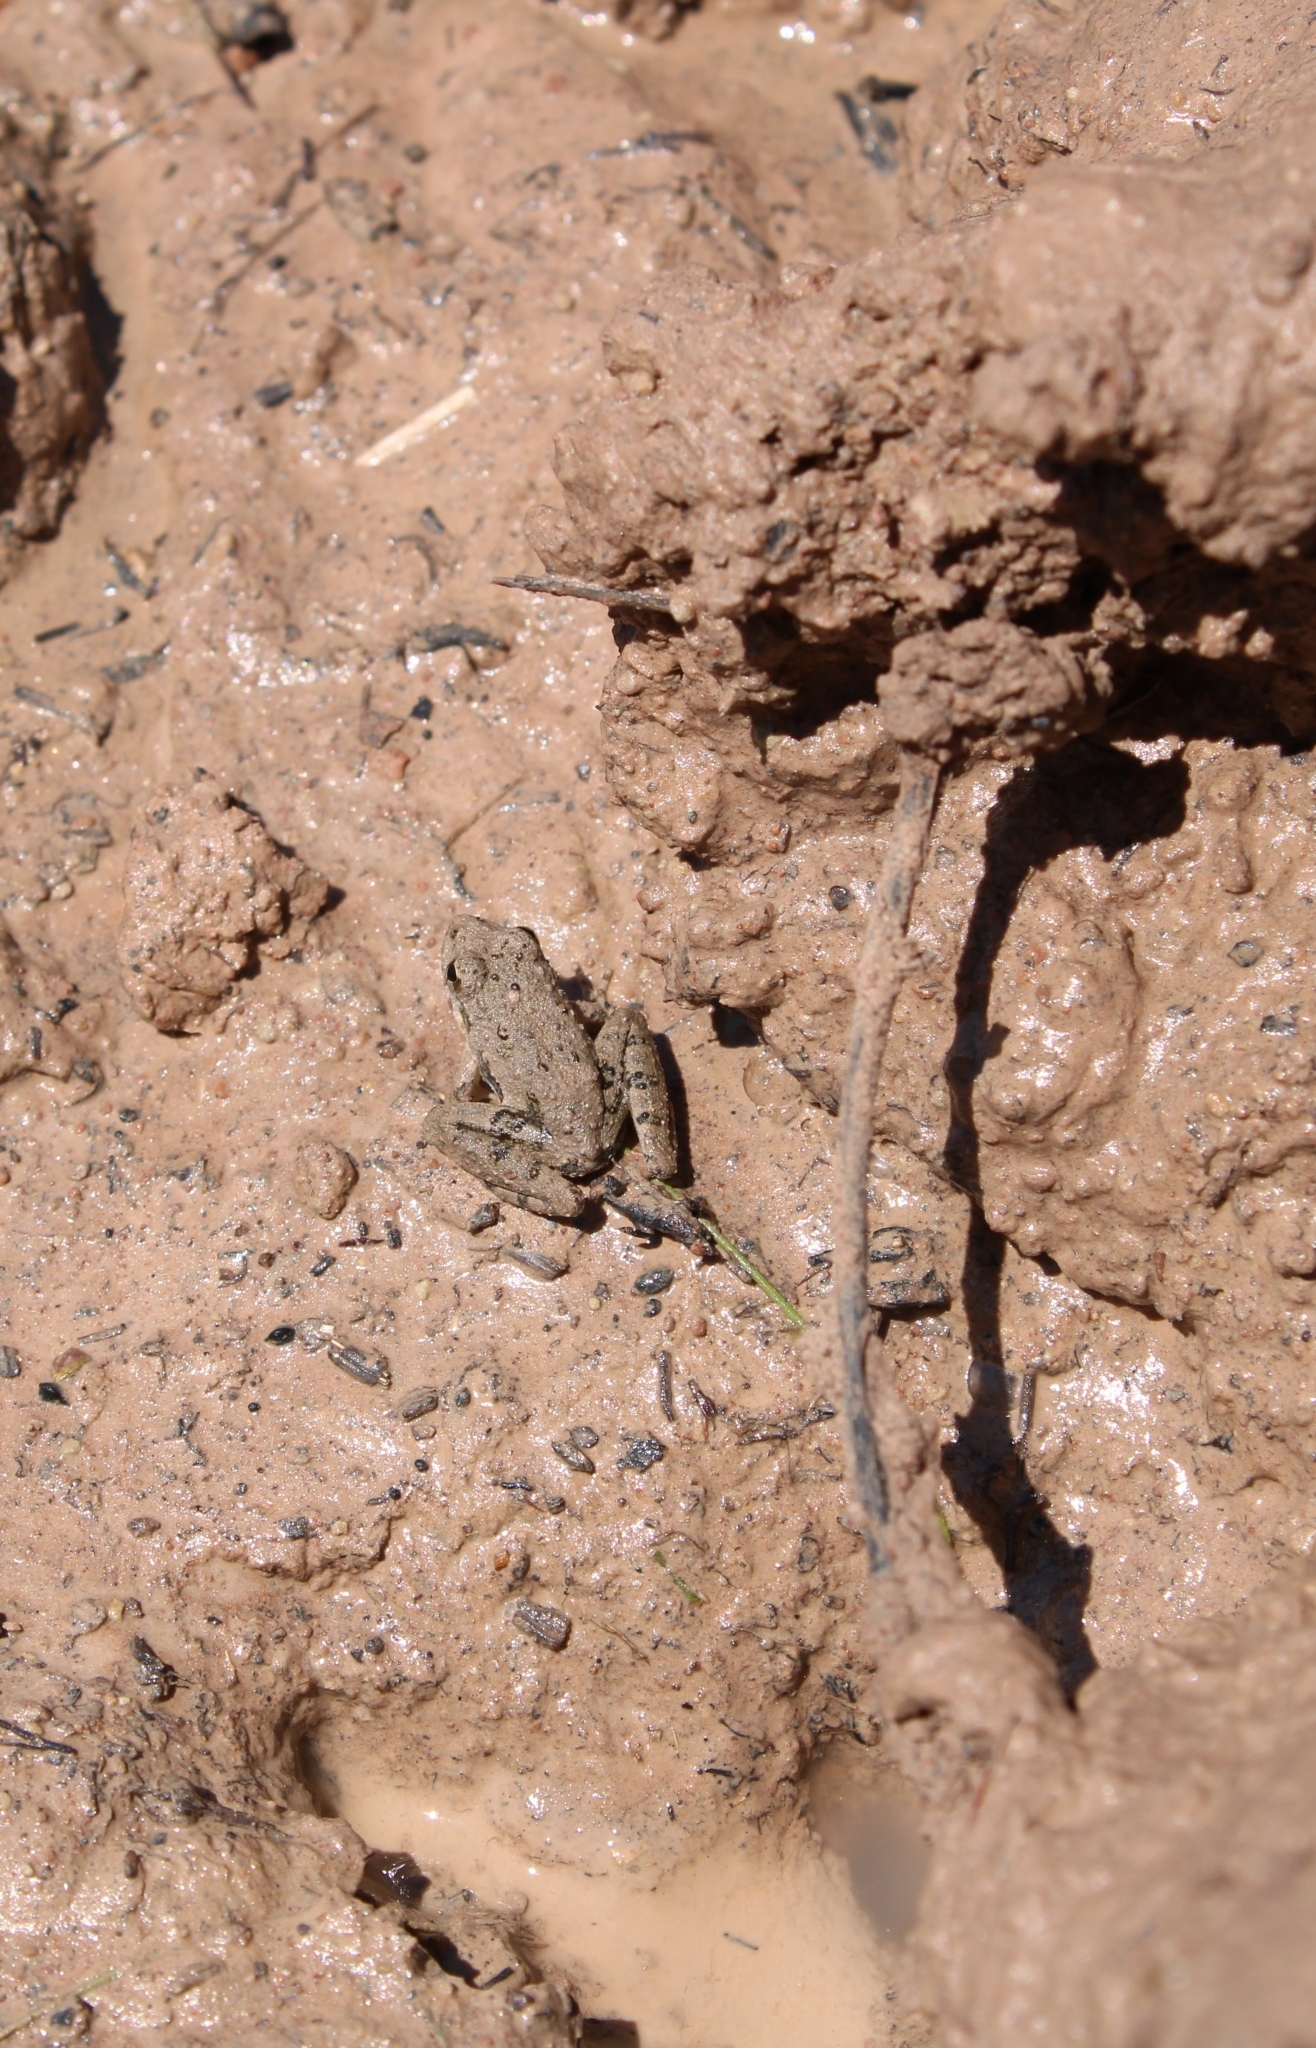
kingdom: Animalia
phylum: Chordata
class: Amphibia
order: Anura
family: Hylidae
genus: Acris
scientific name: Acris blanchardi
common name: Blanchard's cricket frog
